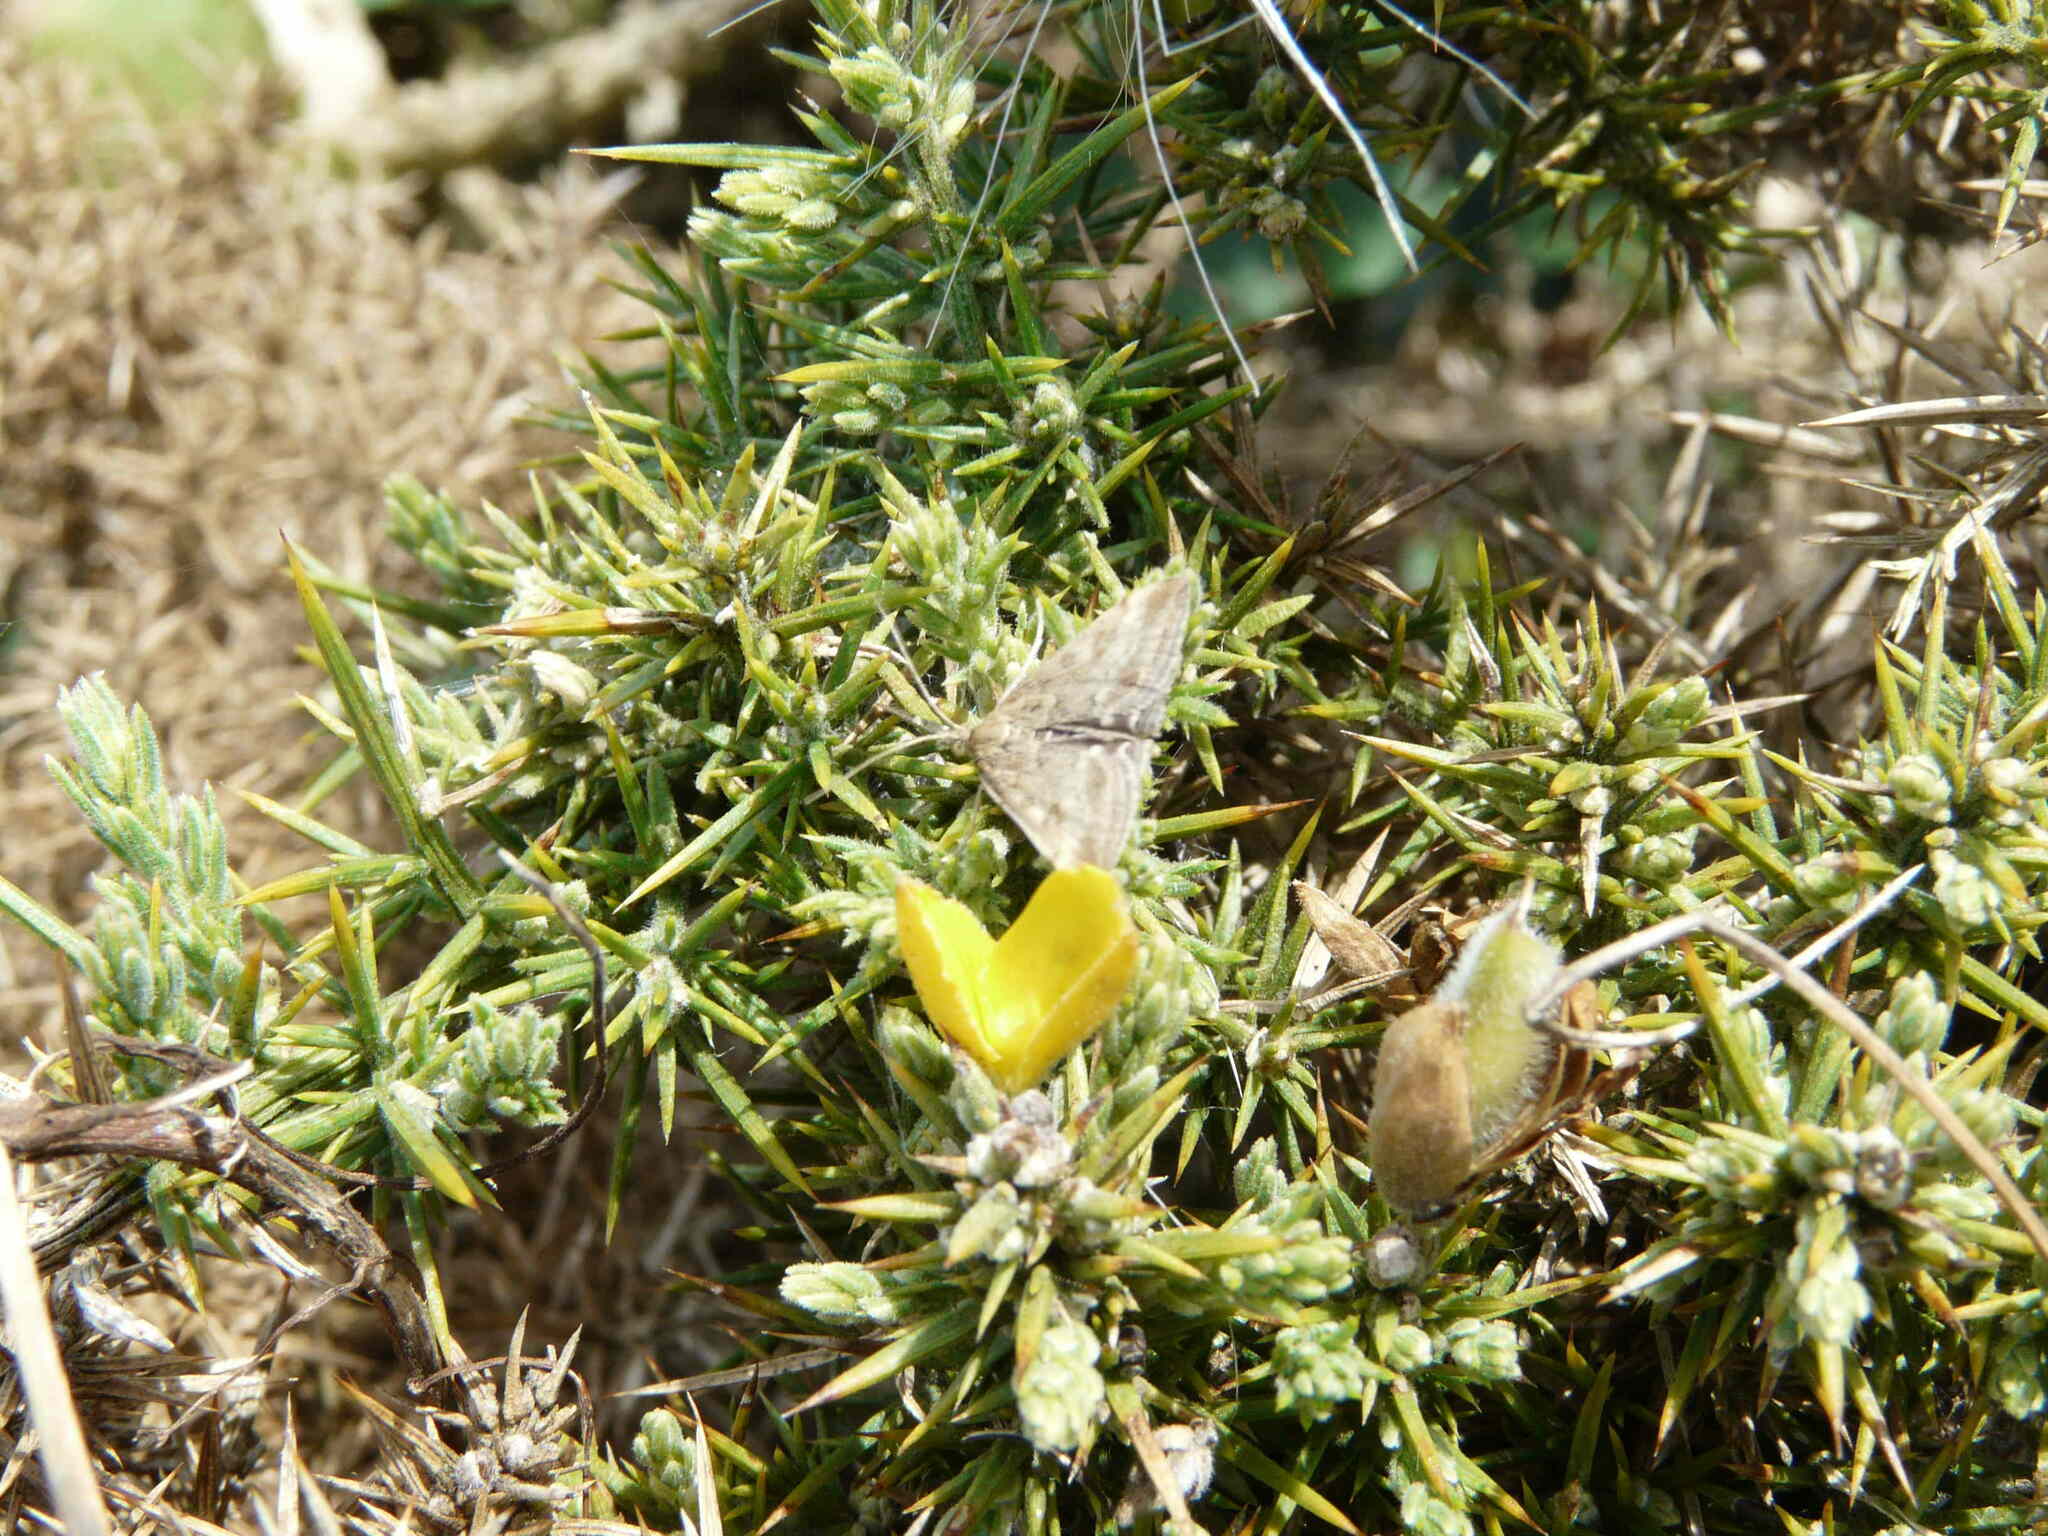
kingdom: Animalia
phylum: Arthropoda
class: Insecta
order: Lepidoptera
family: Crambidae
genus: Pyrausta
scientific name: Pyrausta despicata
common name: Straw-barred pearl
